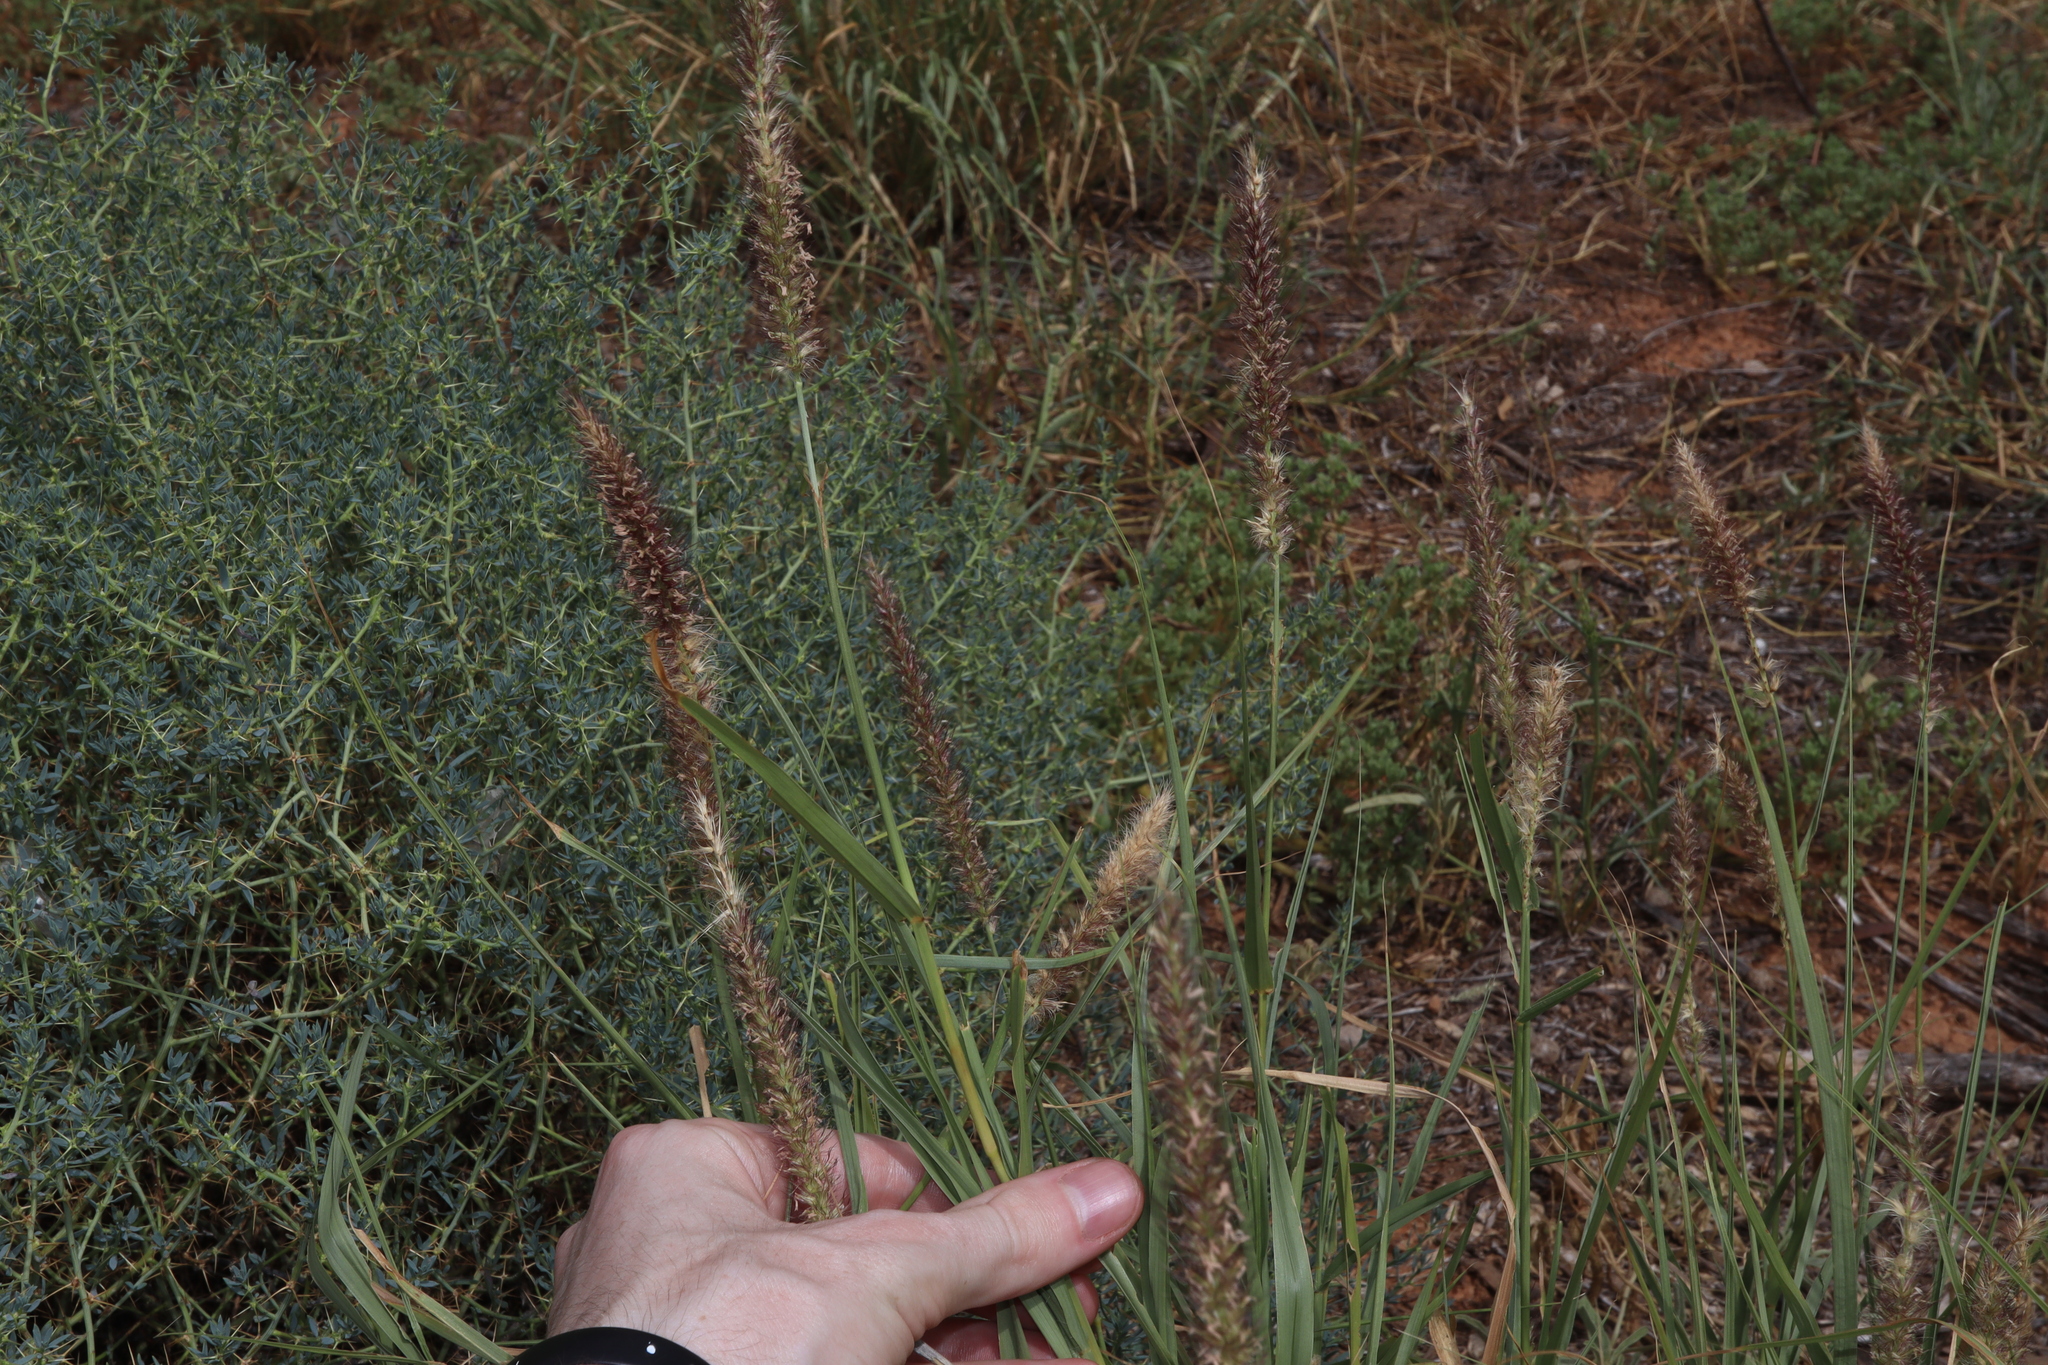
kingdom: Plantae
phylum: Tracheophyta
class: Liliopsida
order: Poales
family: Poaceae
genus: Cenchrus
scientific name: Cenchrus ciliaris
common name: Buffelgrass
